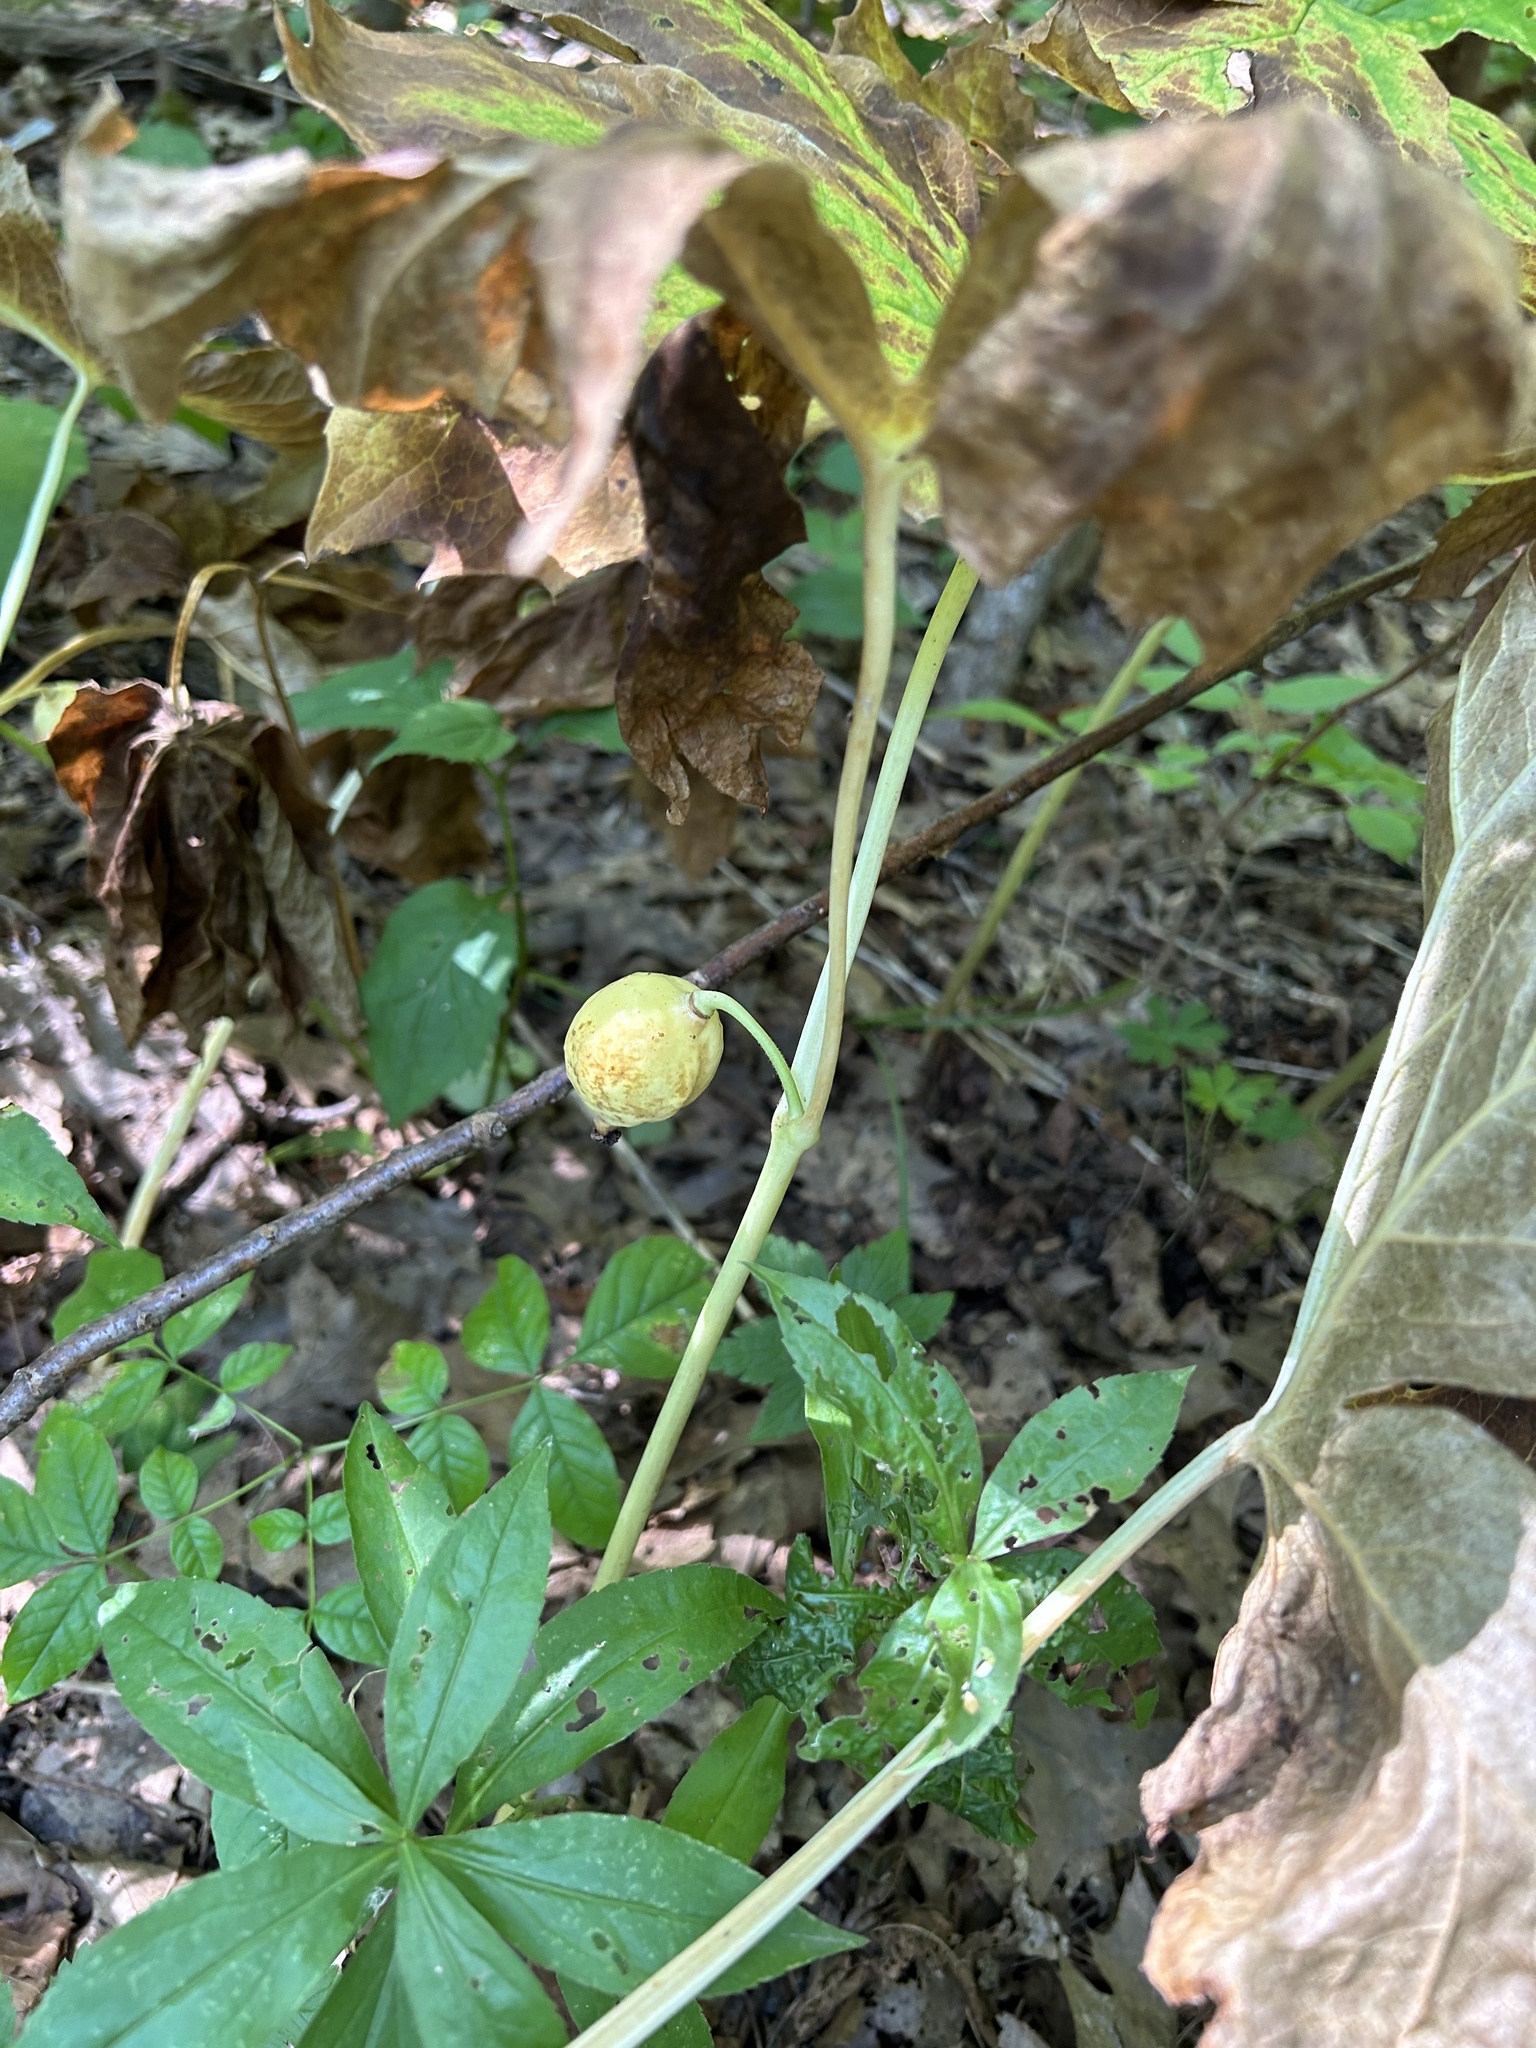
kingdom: Plantae
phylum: Tracheophyta
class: Magnoliopsida
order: Ranunculales
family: Berberidaceae
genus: Podophyllum
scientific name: Podophyllum peltatum
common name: Wild mandrake
